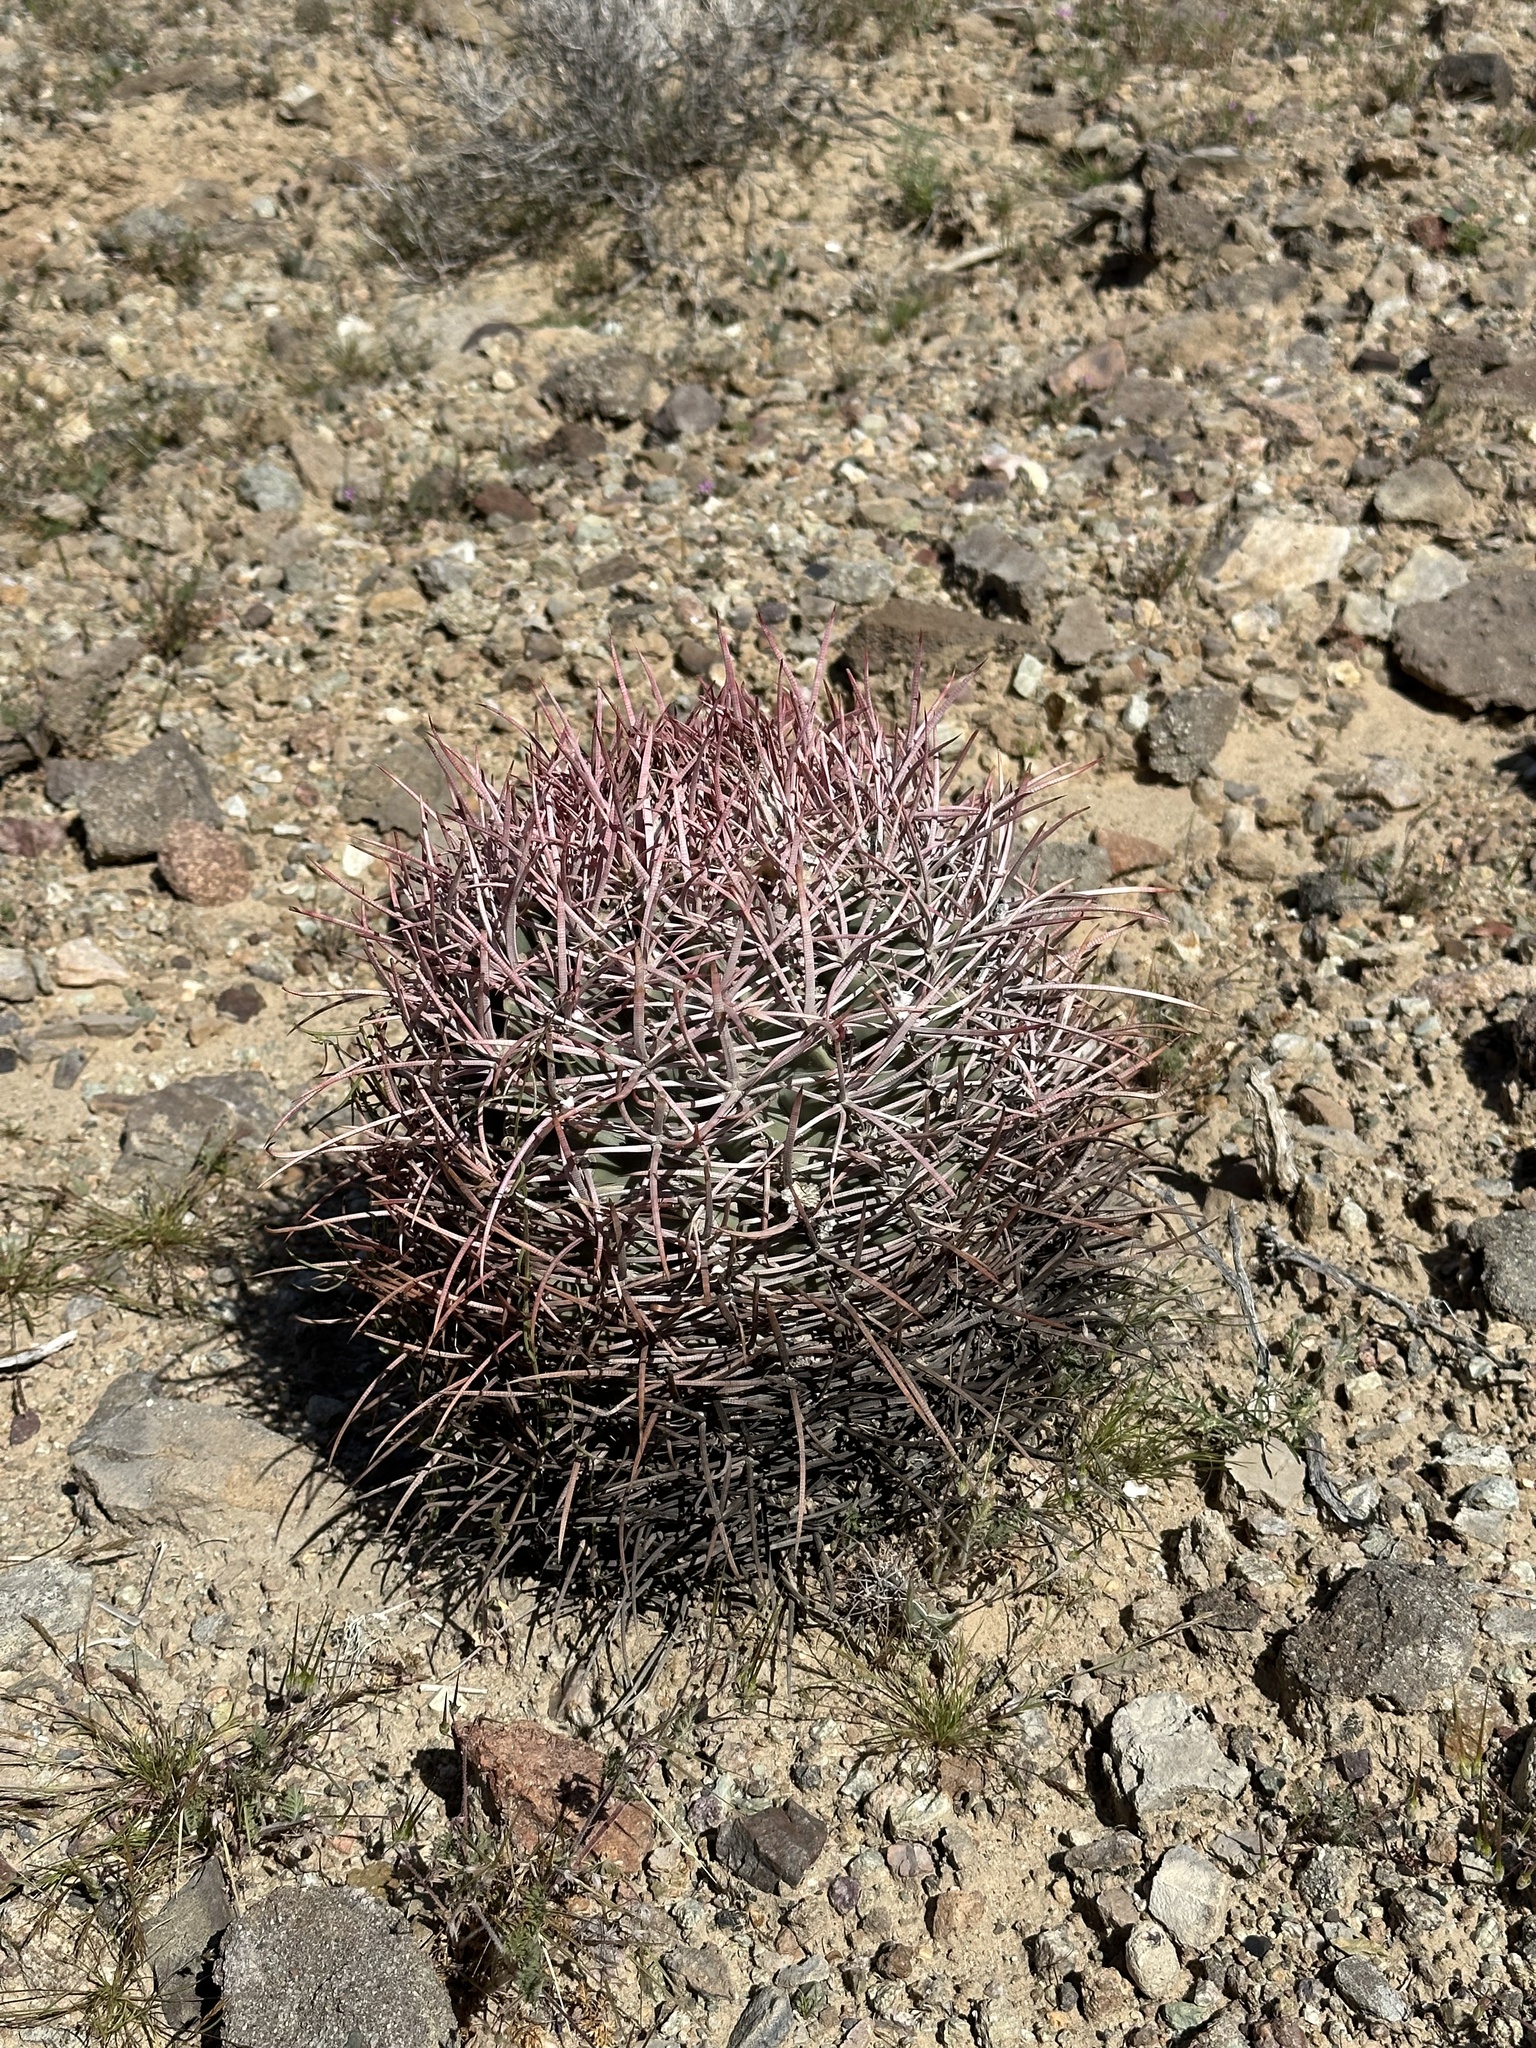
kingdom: Plantae
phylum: Tracheophyta
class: Magnoliopsida
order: Caryophyllales
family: Cactaceae
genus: Echinocactus
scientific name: Echinocactus polycephalus
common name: Cottontop cactus
